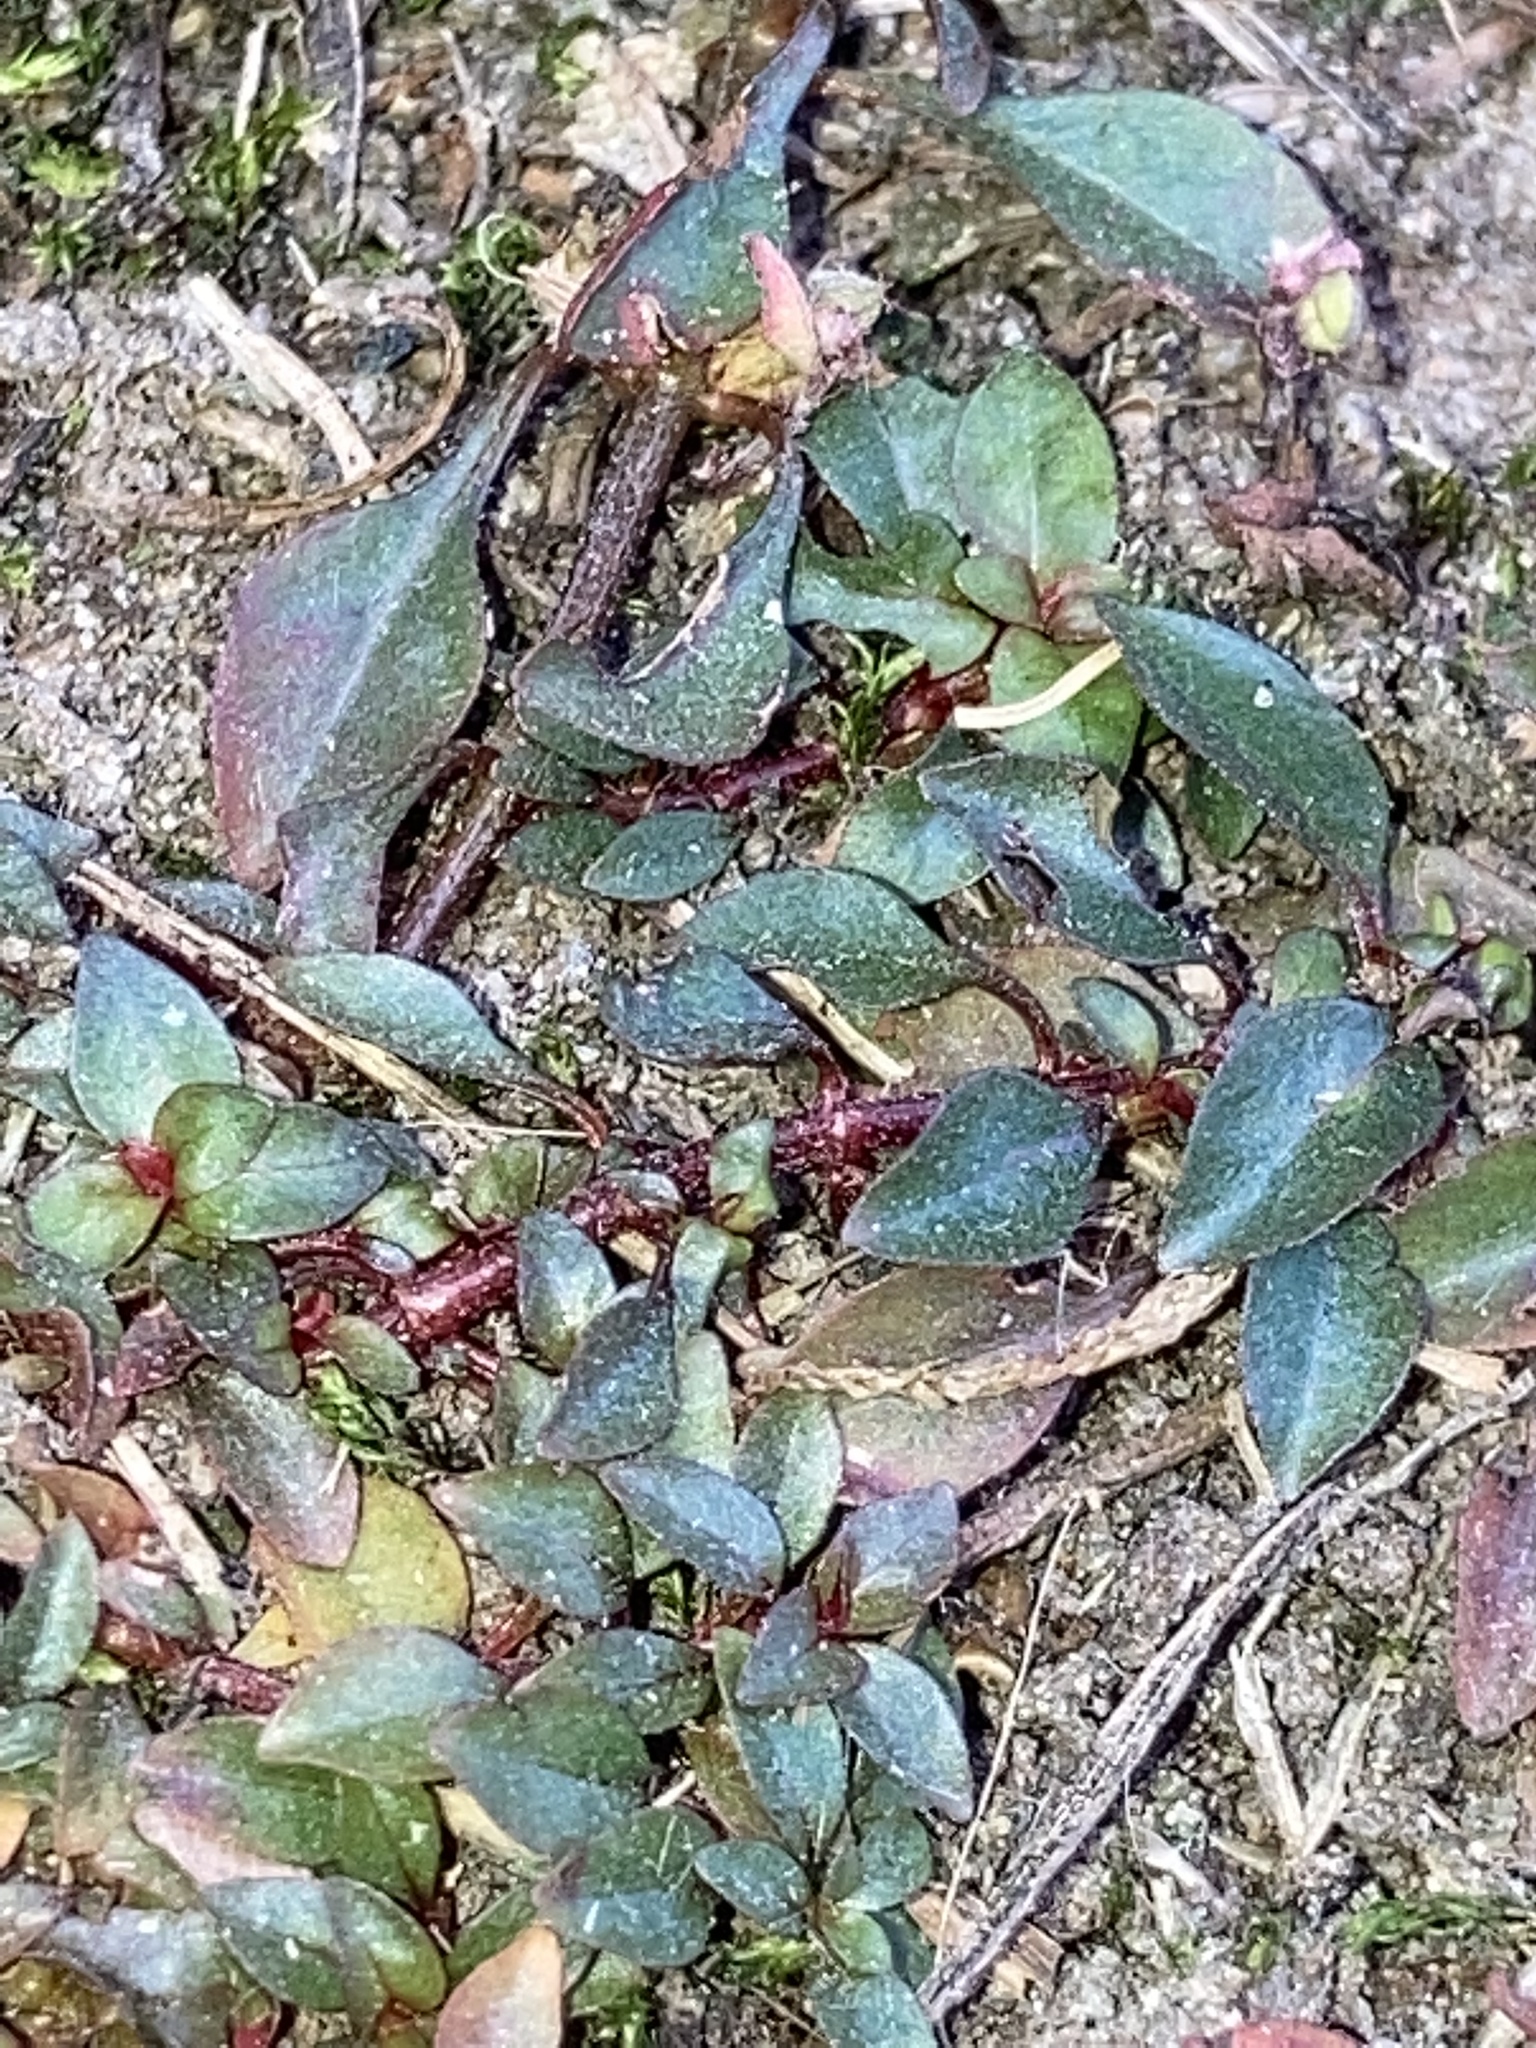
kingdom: Plantae
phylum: Tracheophyta
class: Magnoliopsida
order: Myrtales
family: Onagraceae
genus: Ludwigia
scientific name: Ludwigia spathulata
